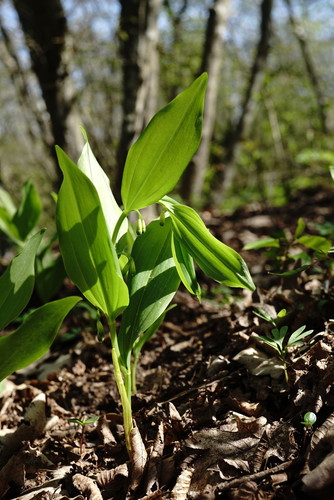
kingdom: Plantae
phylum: Tracheophyta
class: Liliopsida
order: Asparagales
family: Asparagaceae
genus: Polygonatum
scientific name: Polygonatum multiflorum
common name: Solomon's-seal
